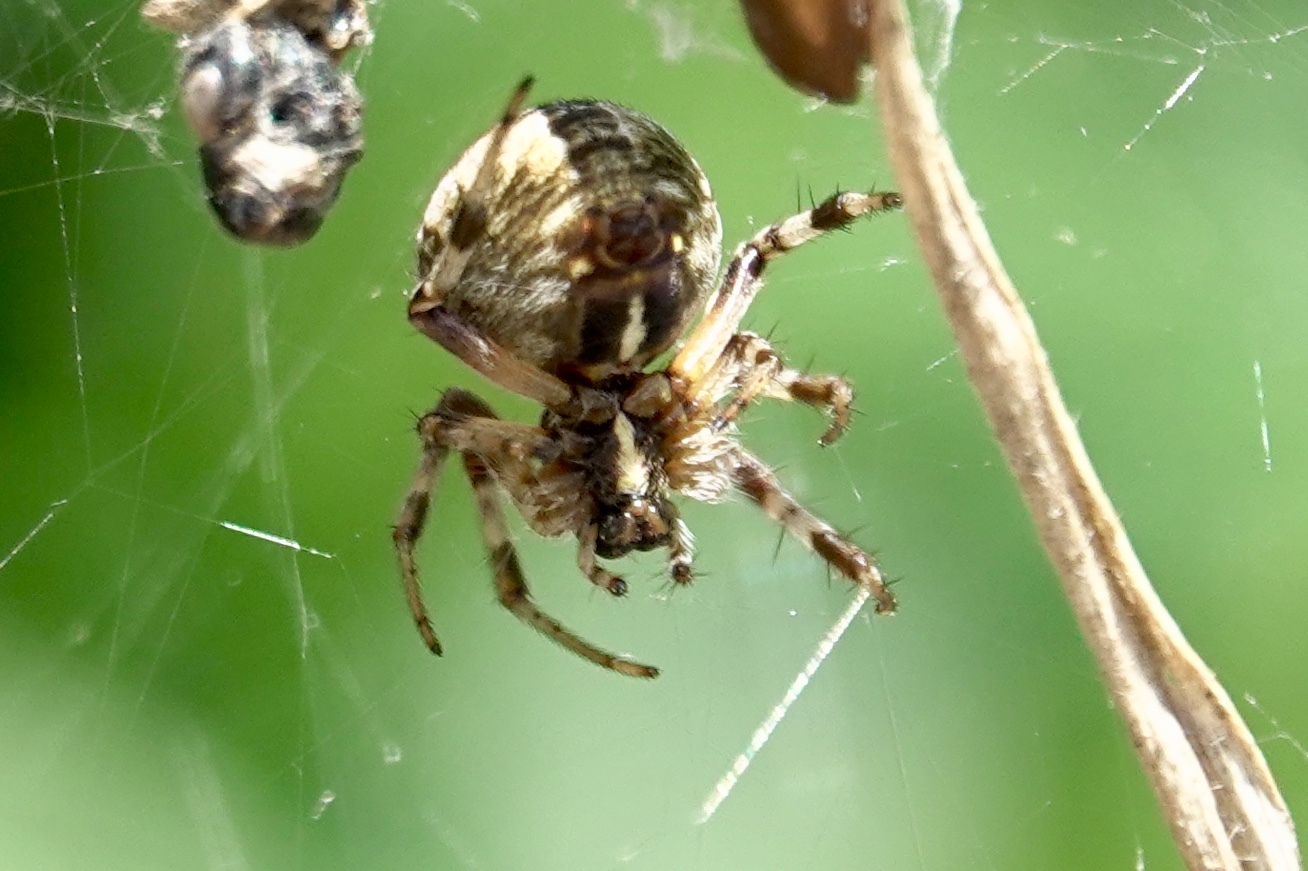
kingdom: Animalia
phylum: Arthropoda
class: Arachnida
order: Araneae
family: Araneidae
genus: Metepeira
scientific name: Metepeira labyrinthea
